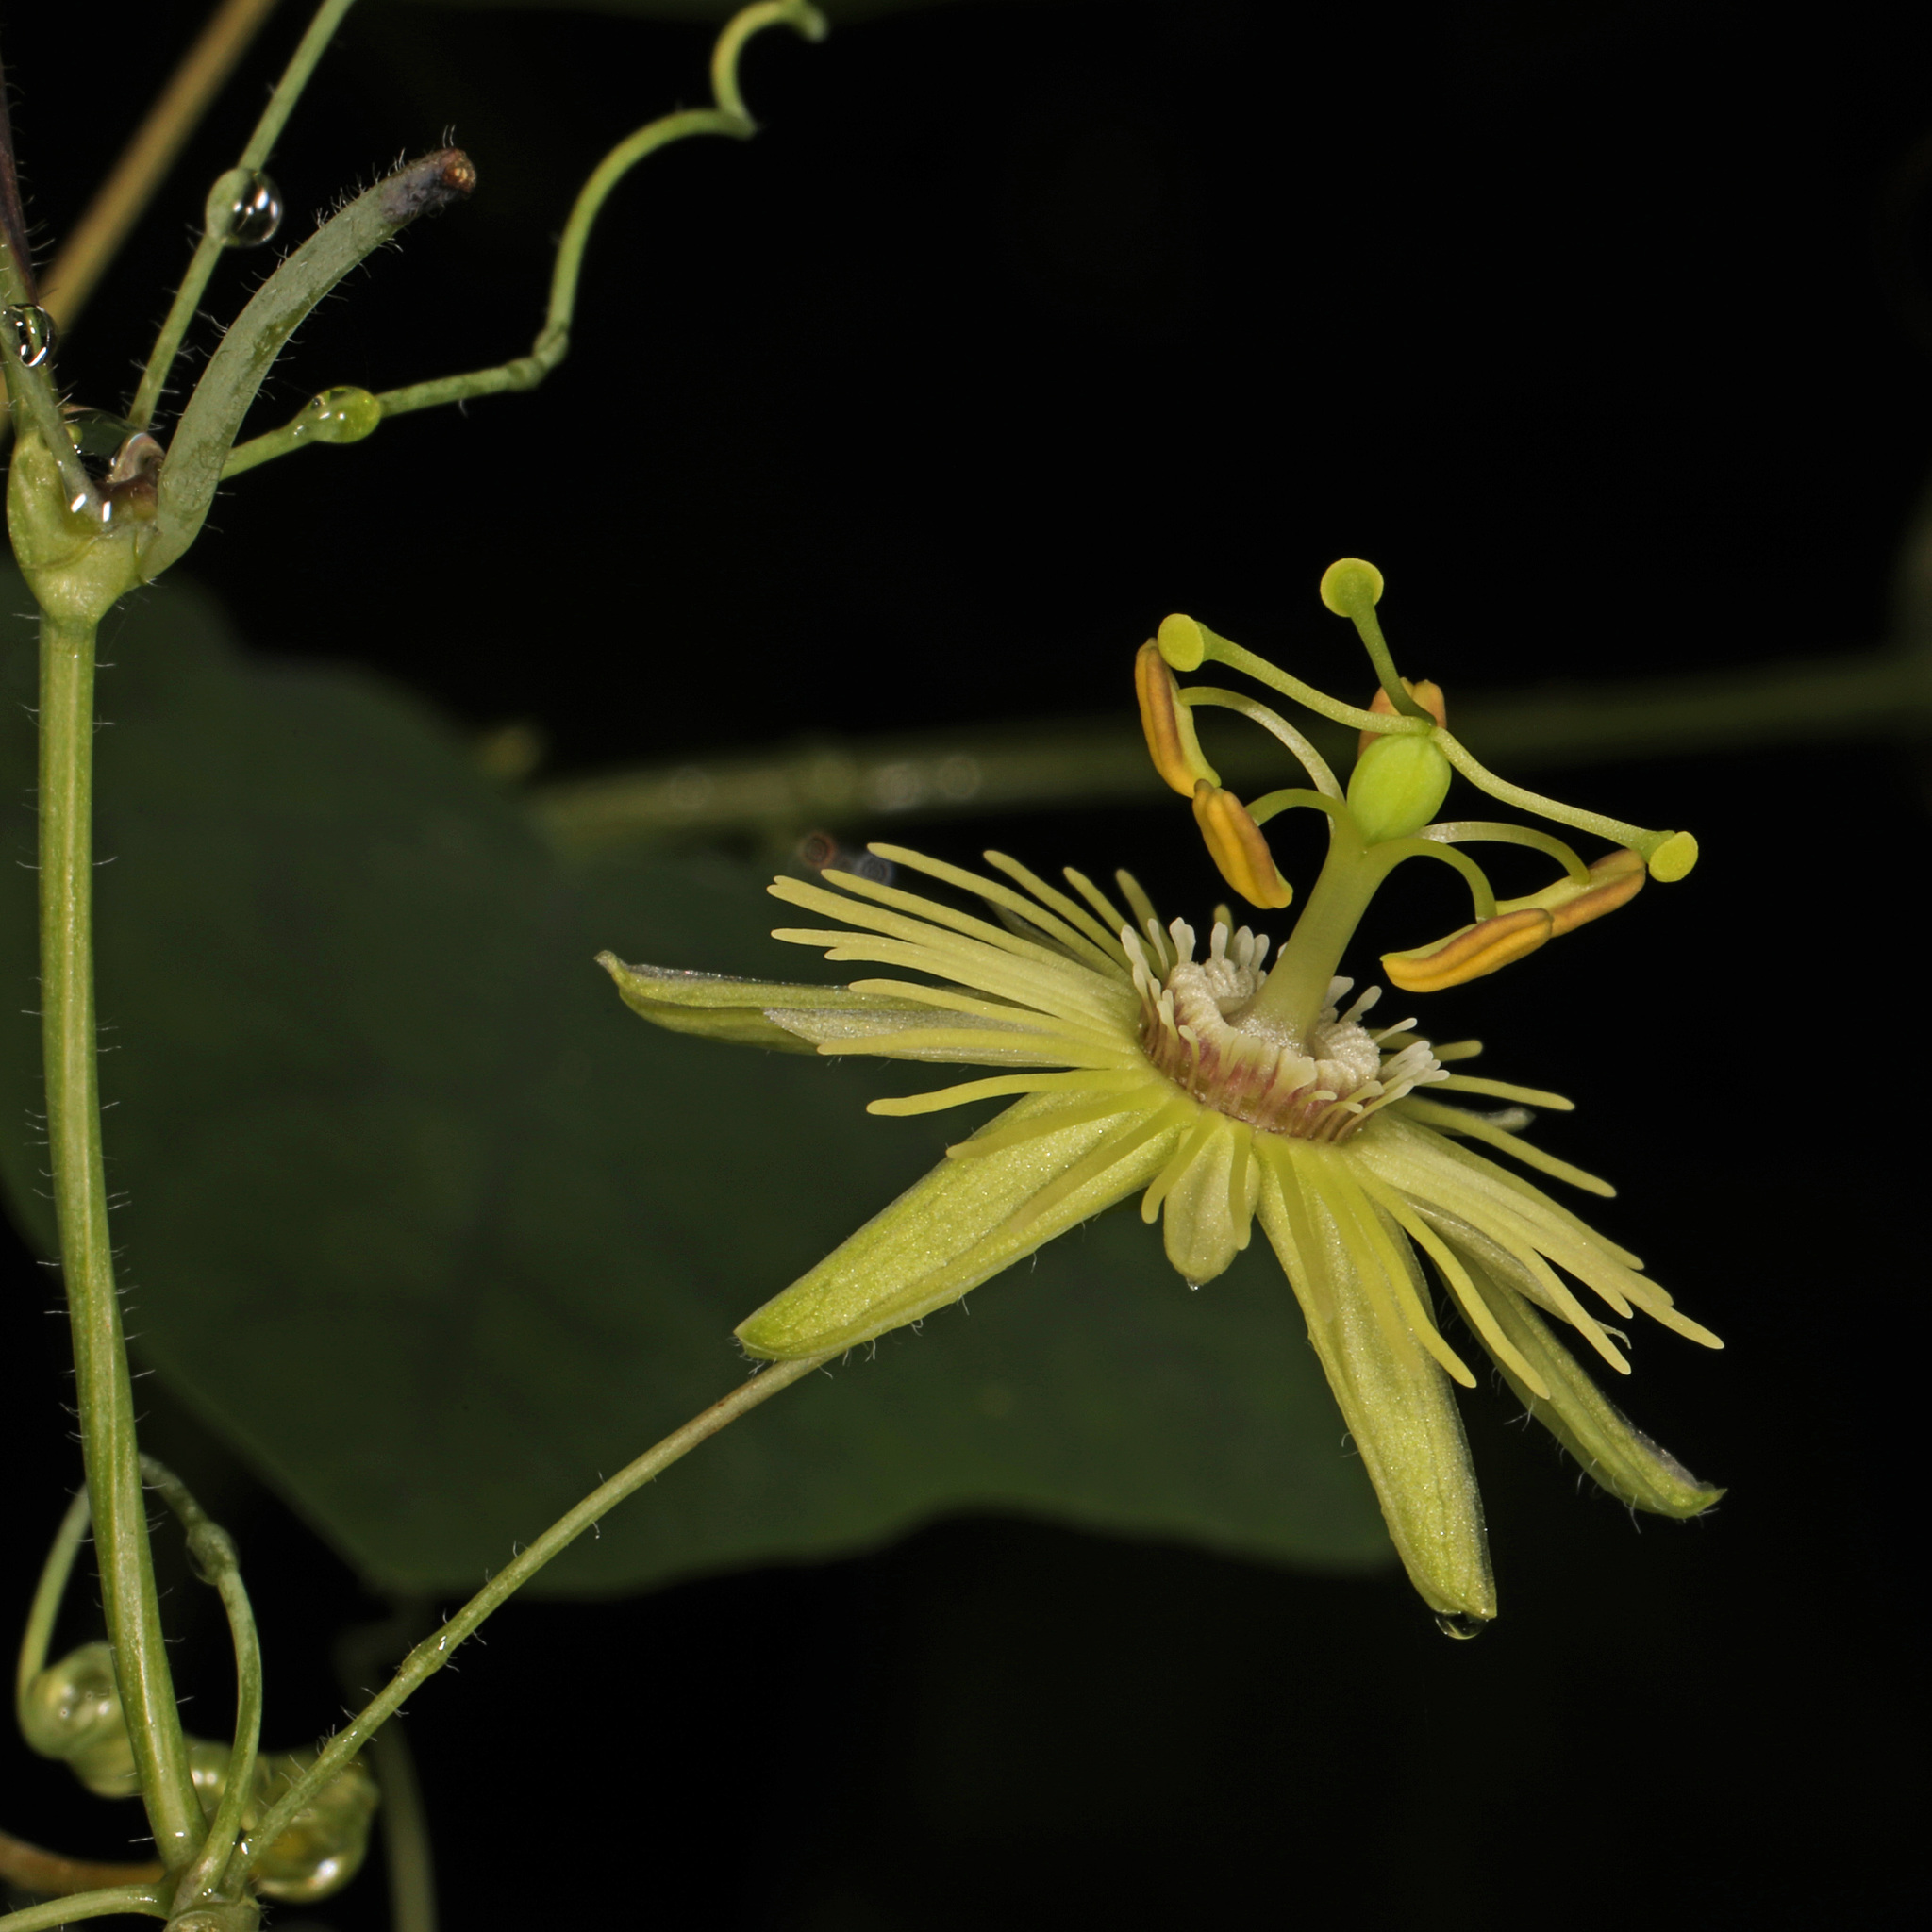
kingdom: Plantae
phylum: Tracheophyta
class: Magnoliopsida
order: Malpighiales
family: Passifloraceae
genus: Passiflora
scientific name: Passiflora lutea
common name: Yellow passionflower
